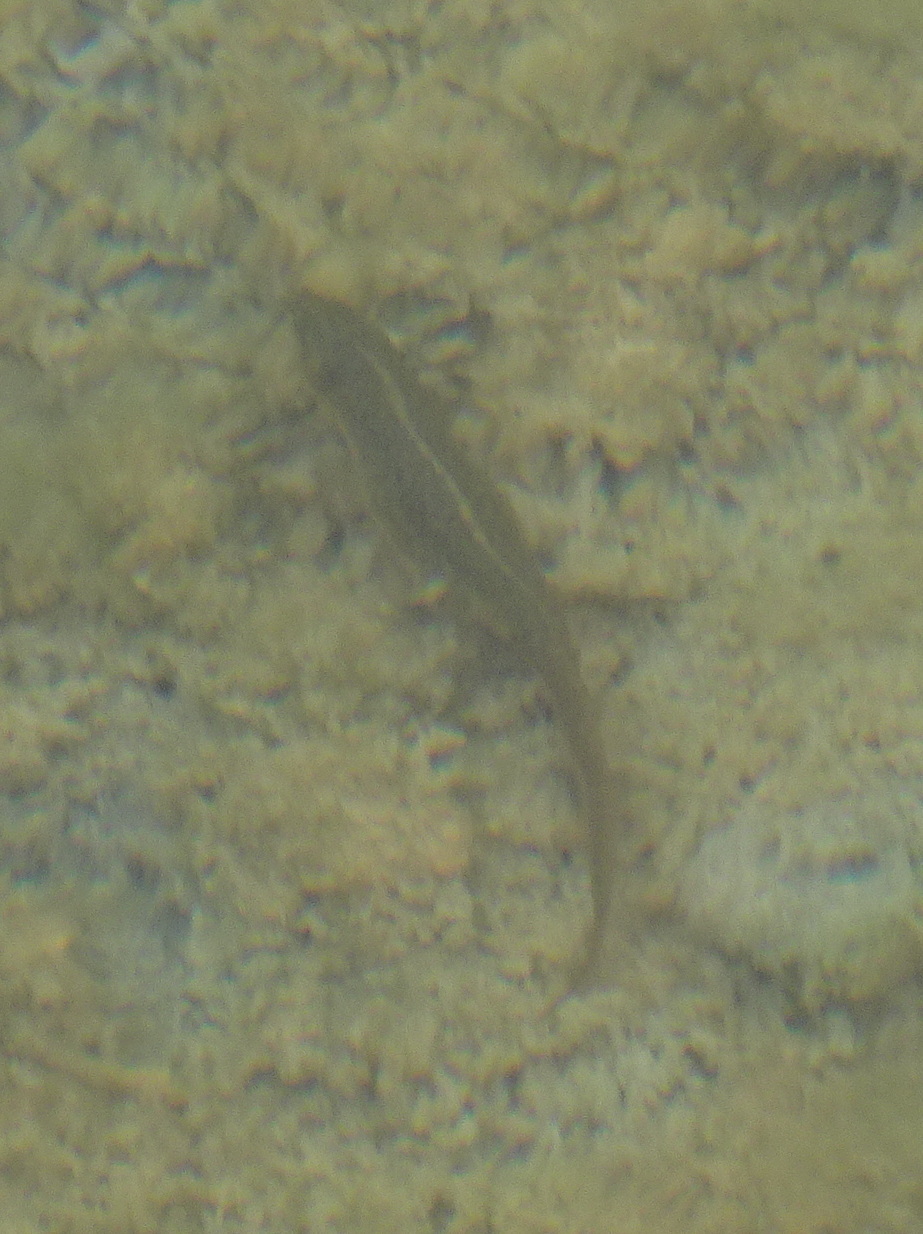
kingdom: Animalia
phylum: Chordata
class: Amphibia
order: Caudata
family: Salamandridae
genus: Notophthalmus
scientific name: Notophthalmus viridescens
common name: Eastern newt
